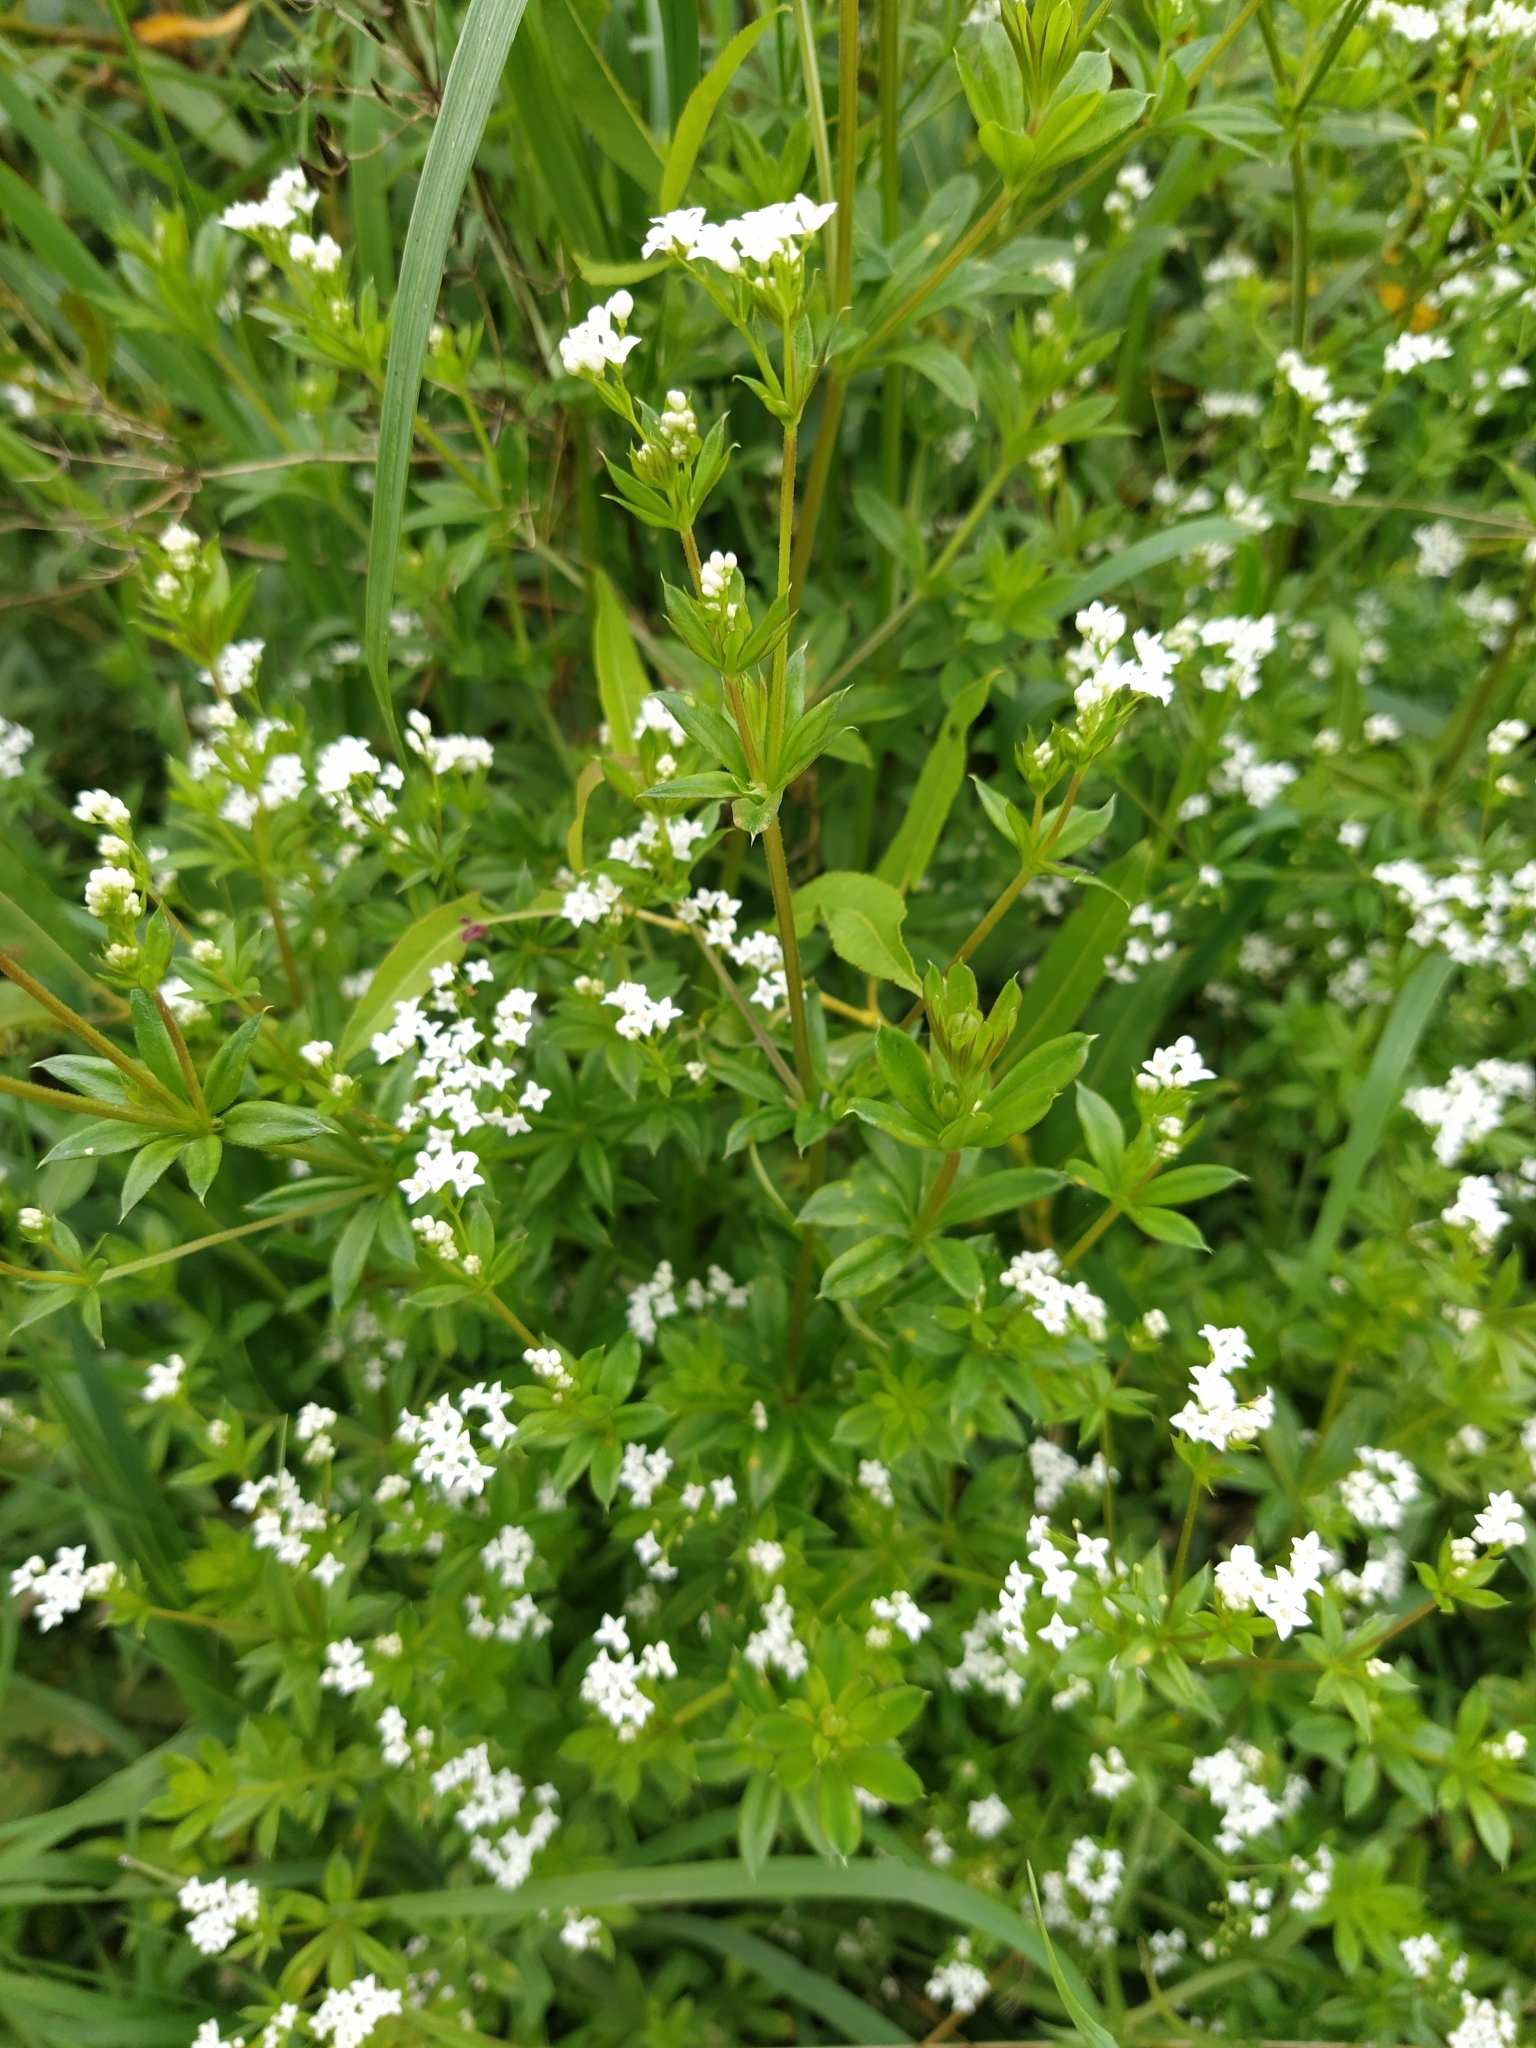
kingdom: Plantae
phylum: Tracheophyta
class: Magnoliopsida
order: Gentianales
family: Rubiaceae
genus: Galium
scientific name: Galium rivale
